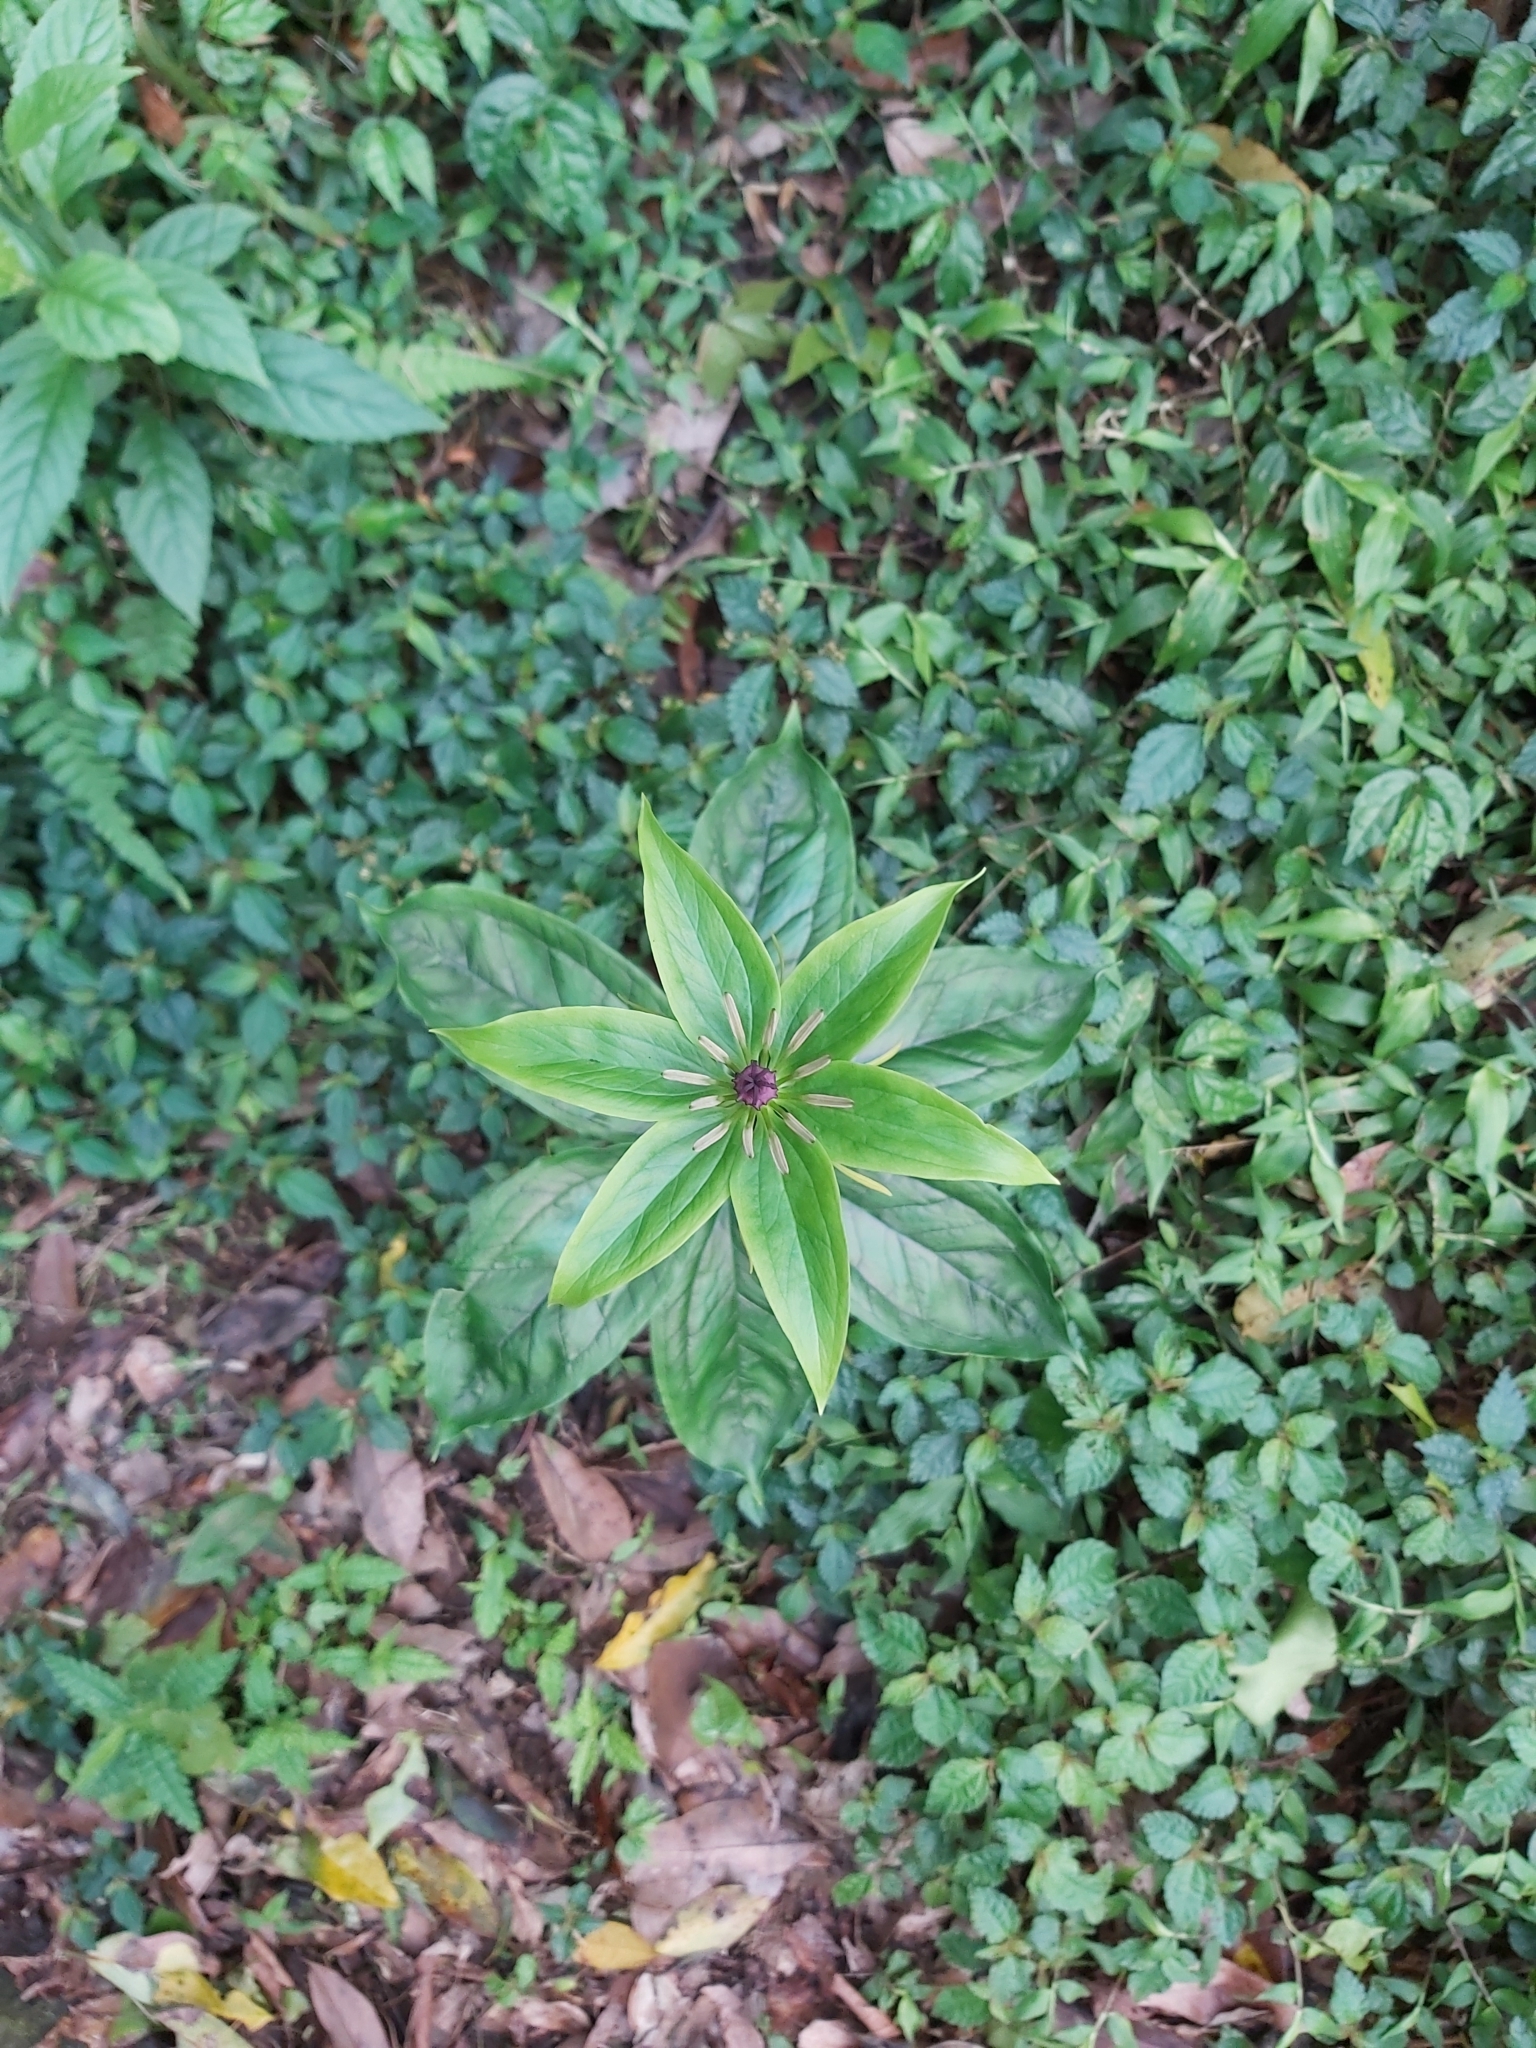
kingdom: Plantae
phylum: Tracheophyta
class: Liliopsida
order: Liliales
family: Melanthiaceae
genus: Paris
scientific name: Paris polyphylla
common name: Love apple
